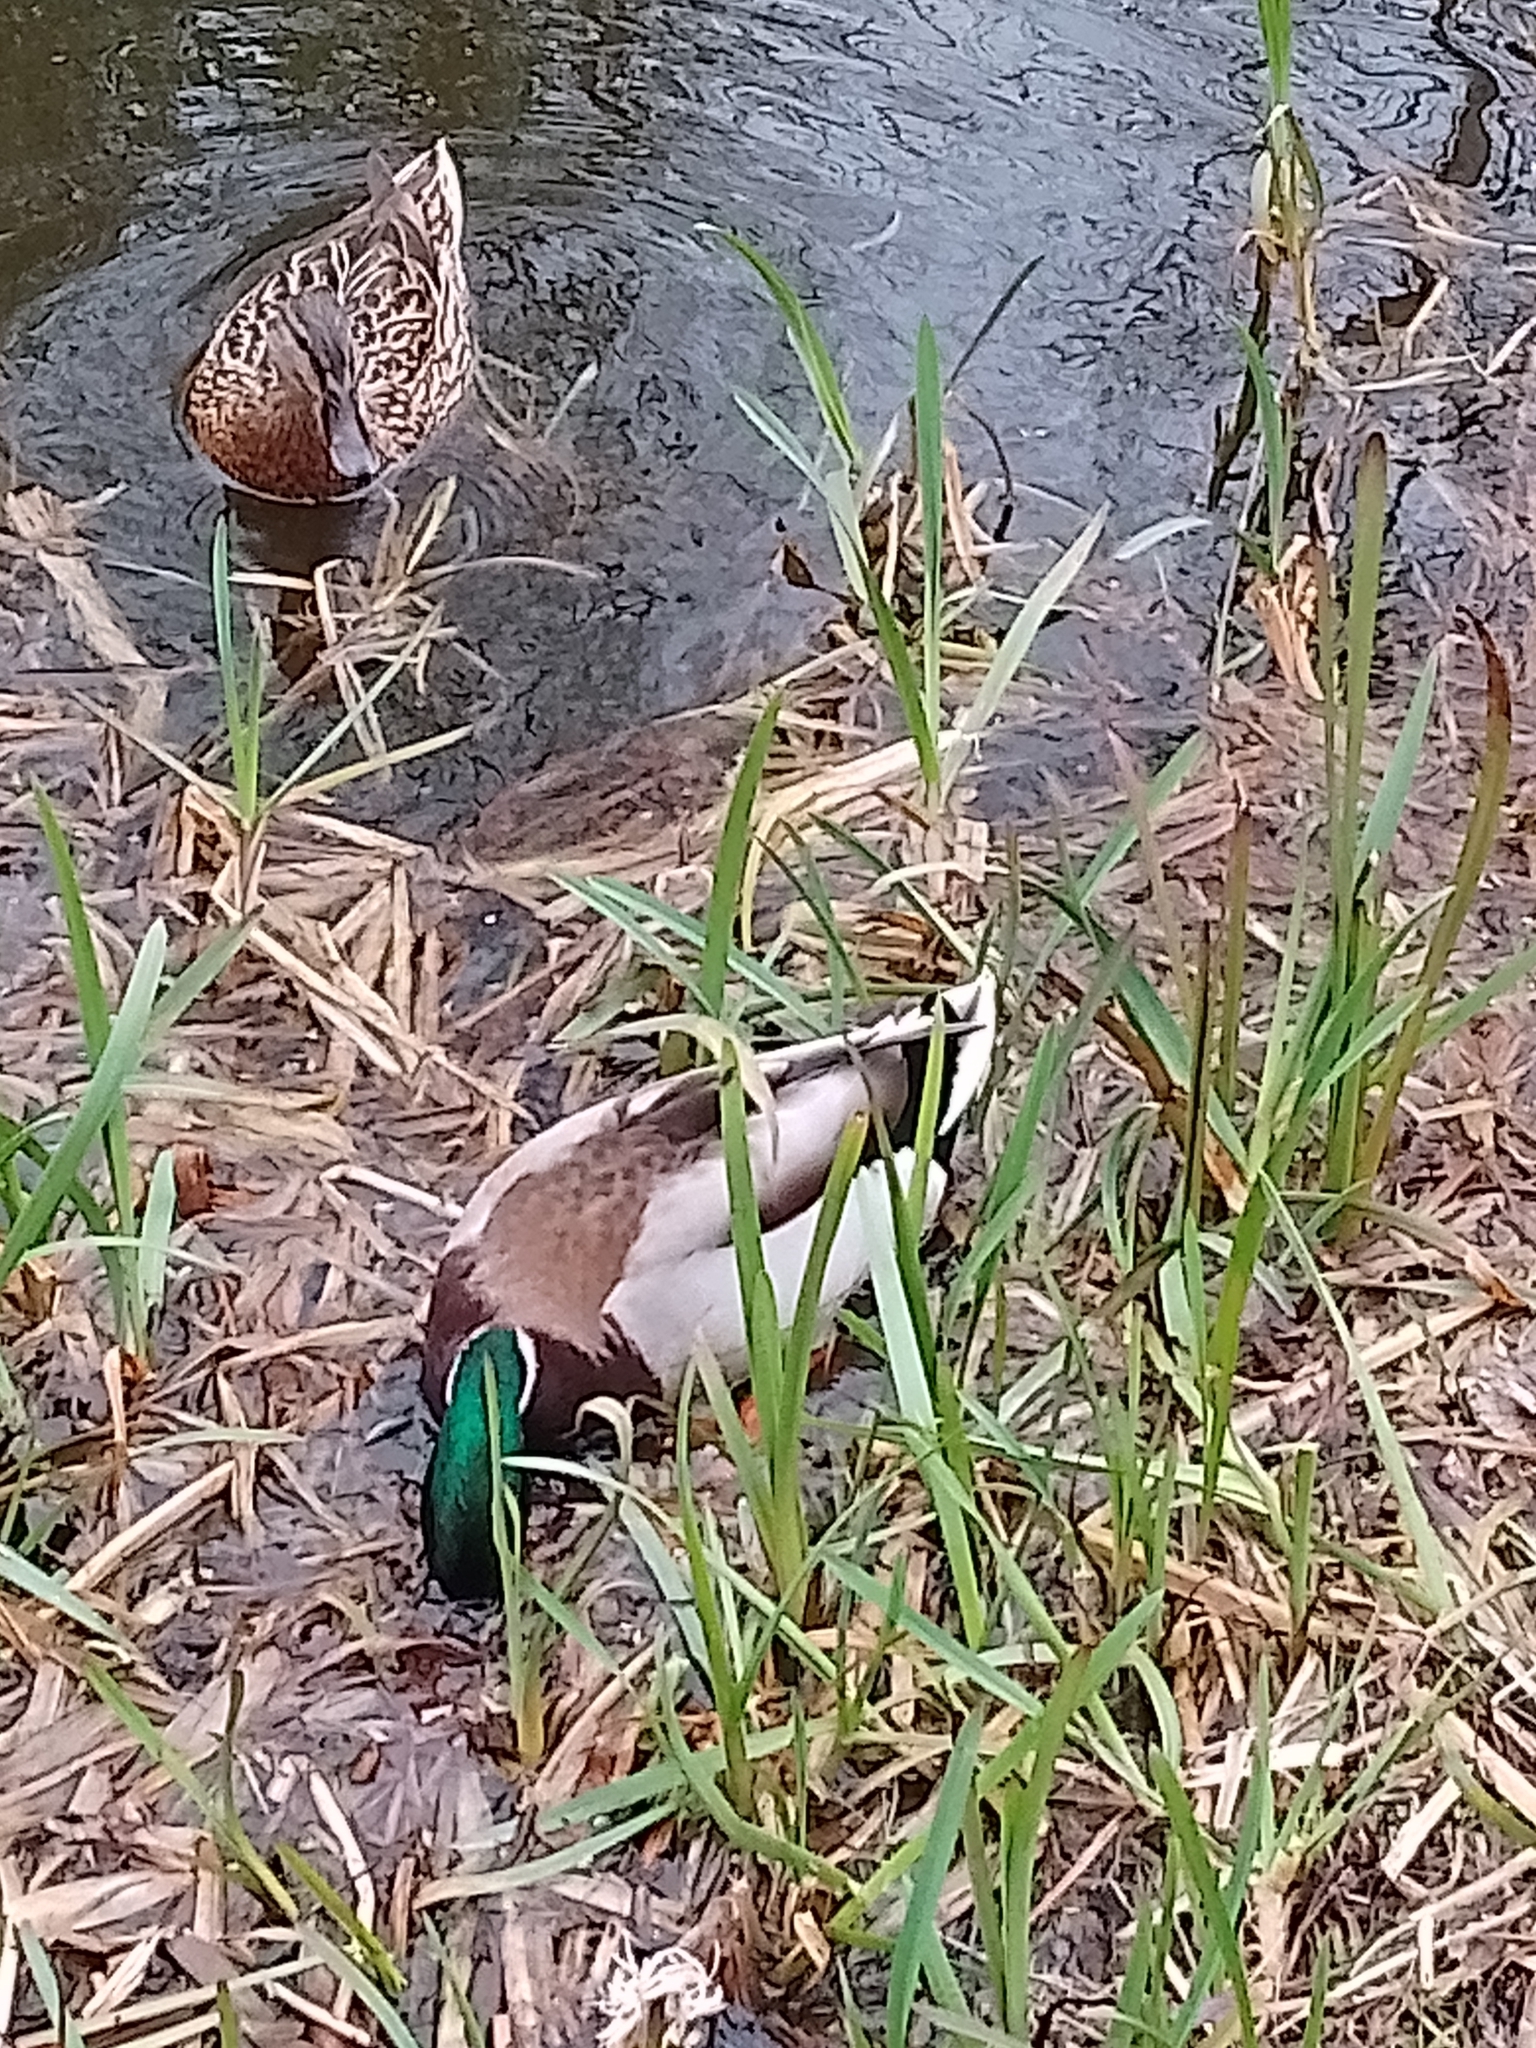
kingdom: Animalia
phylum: Chordata
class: Aves
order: Anseriformes
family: Anatidae
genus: Anas
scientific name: Anas platyrhynchos
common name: Mallard
